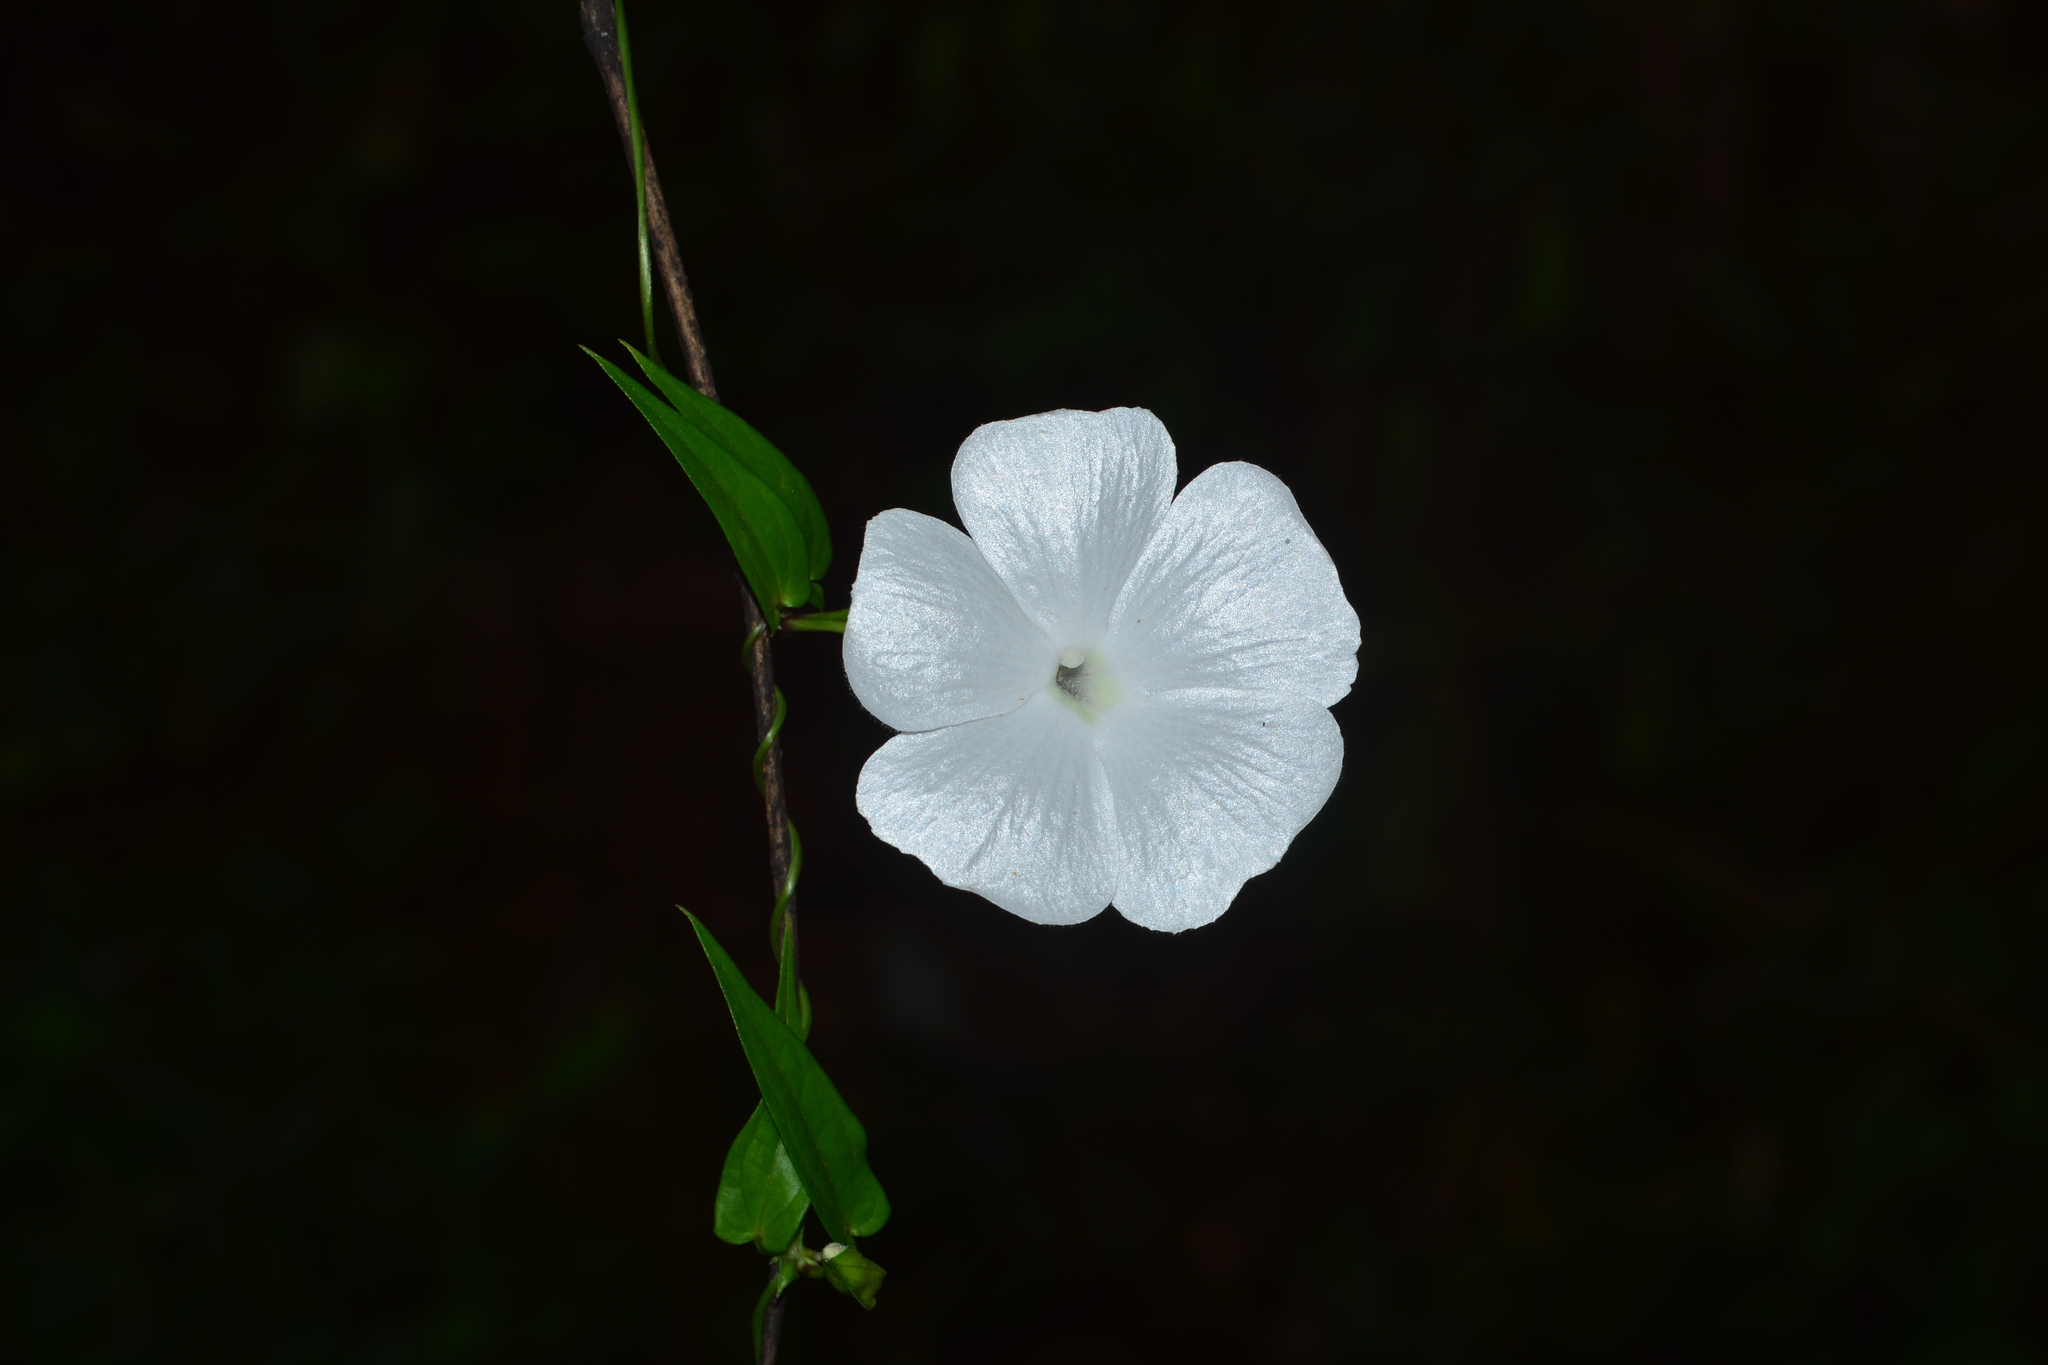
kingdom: Plantae
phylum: Tracheophyta
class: Magnoliopsida
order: Lamiales
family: Acanthaceae
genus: Thunbergia
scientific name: Thunbergia fragrans
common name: Whitelady
